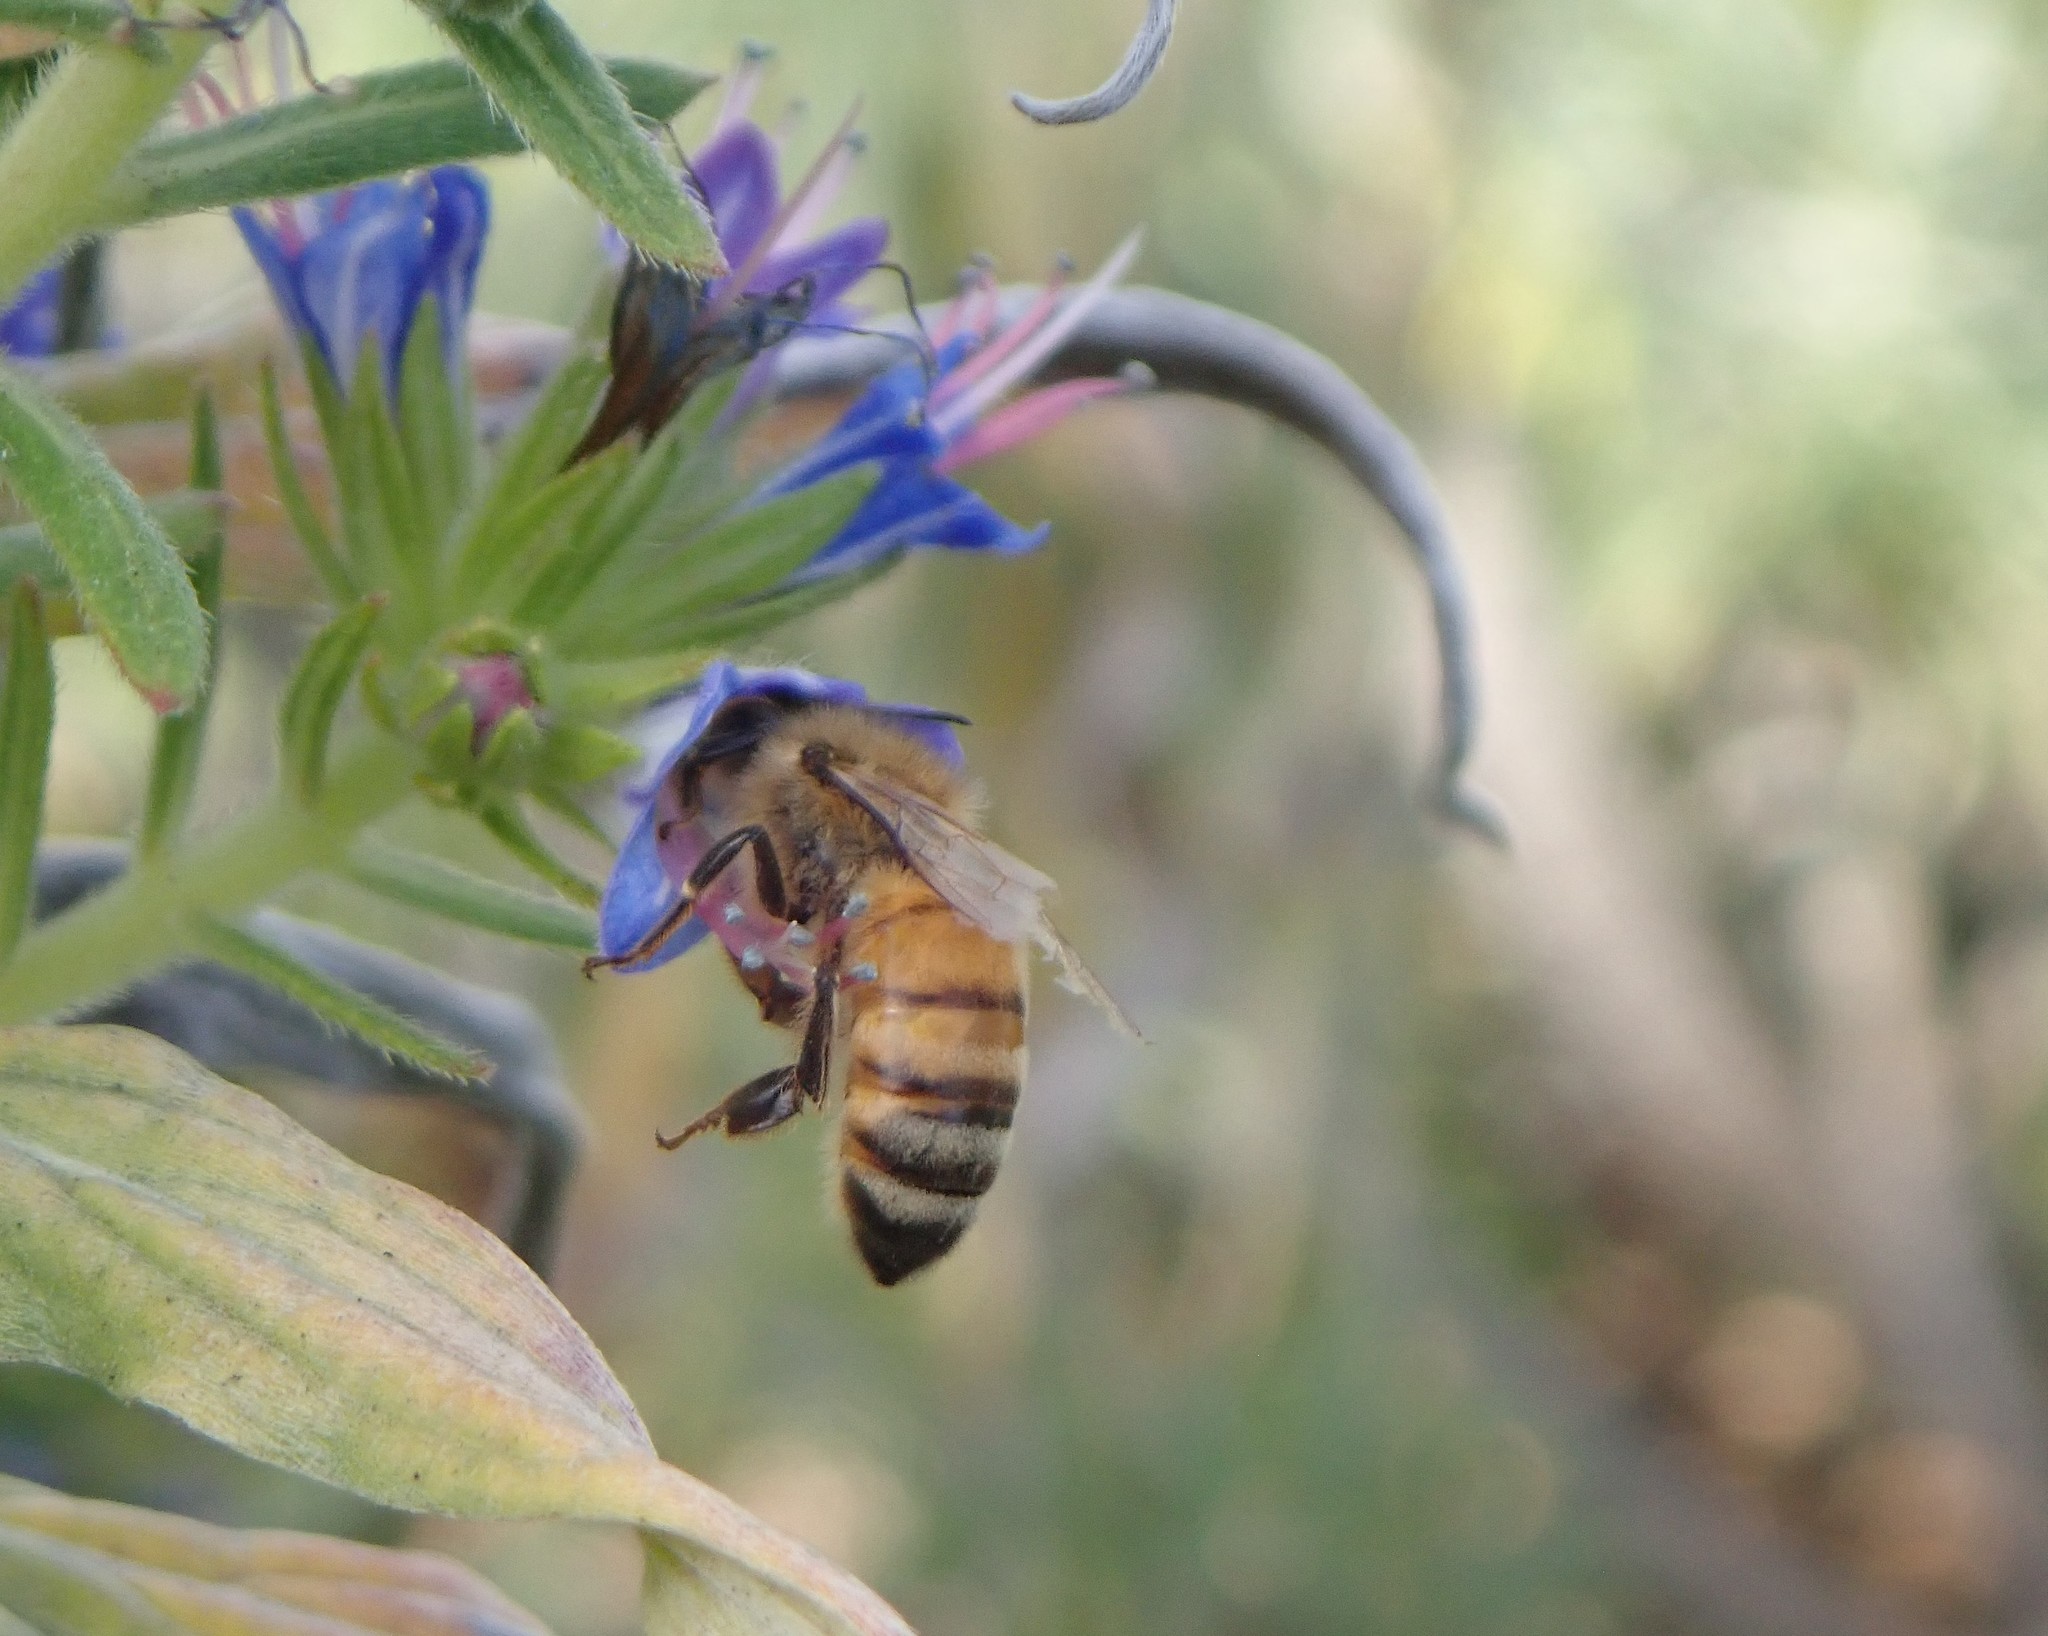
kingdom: Animalia
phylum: Arthropoda
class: Insecta
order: Hymenoptera
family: Apidae
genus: Apis
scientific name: Apis mellifera
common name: Honey bee
